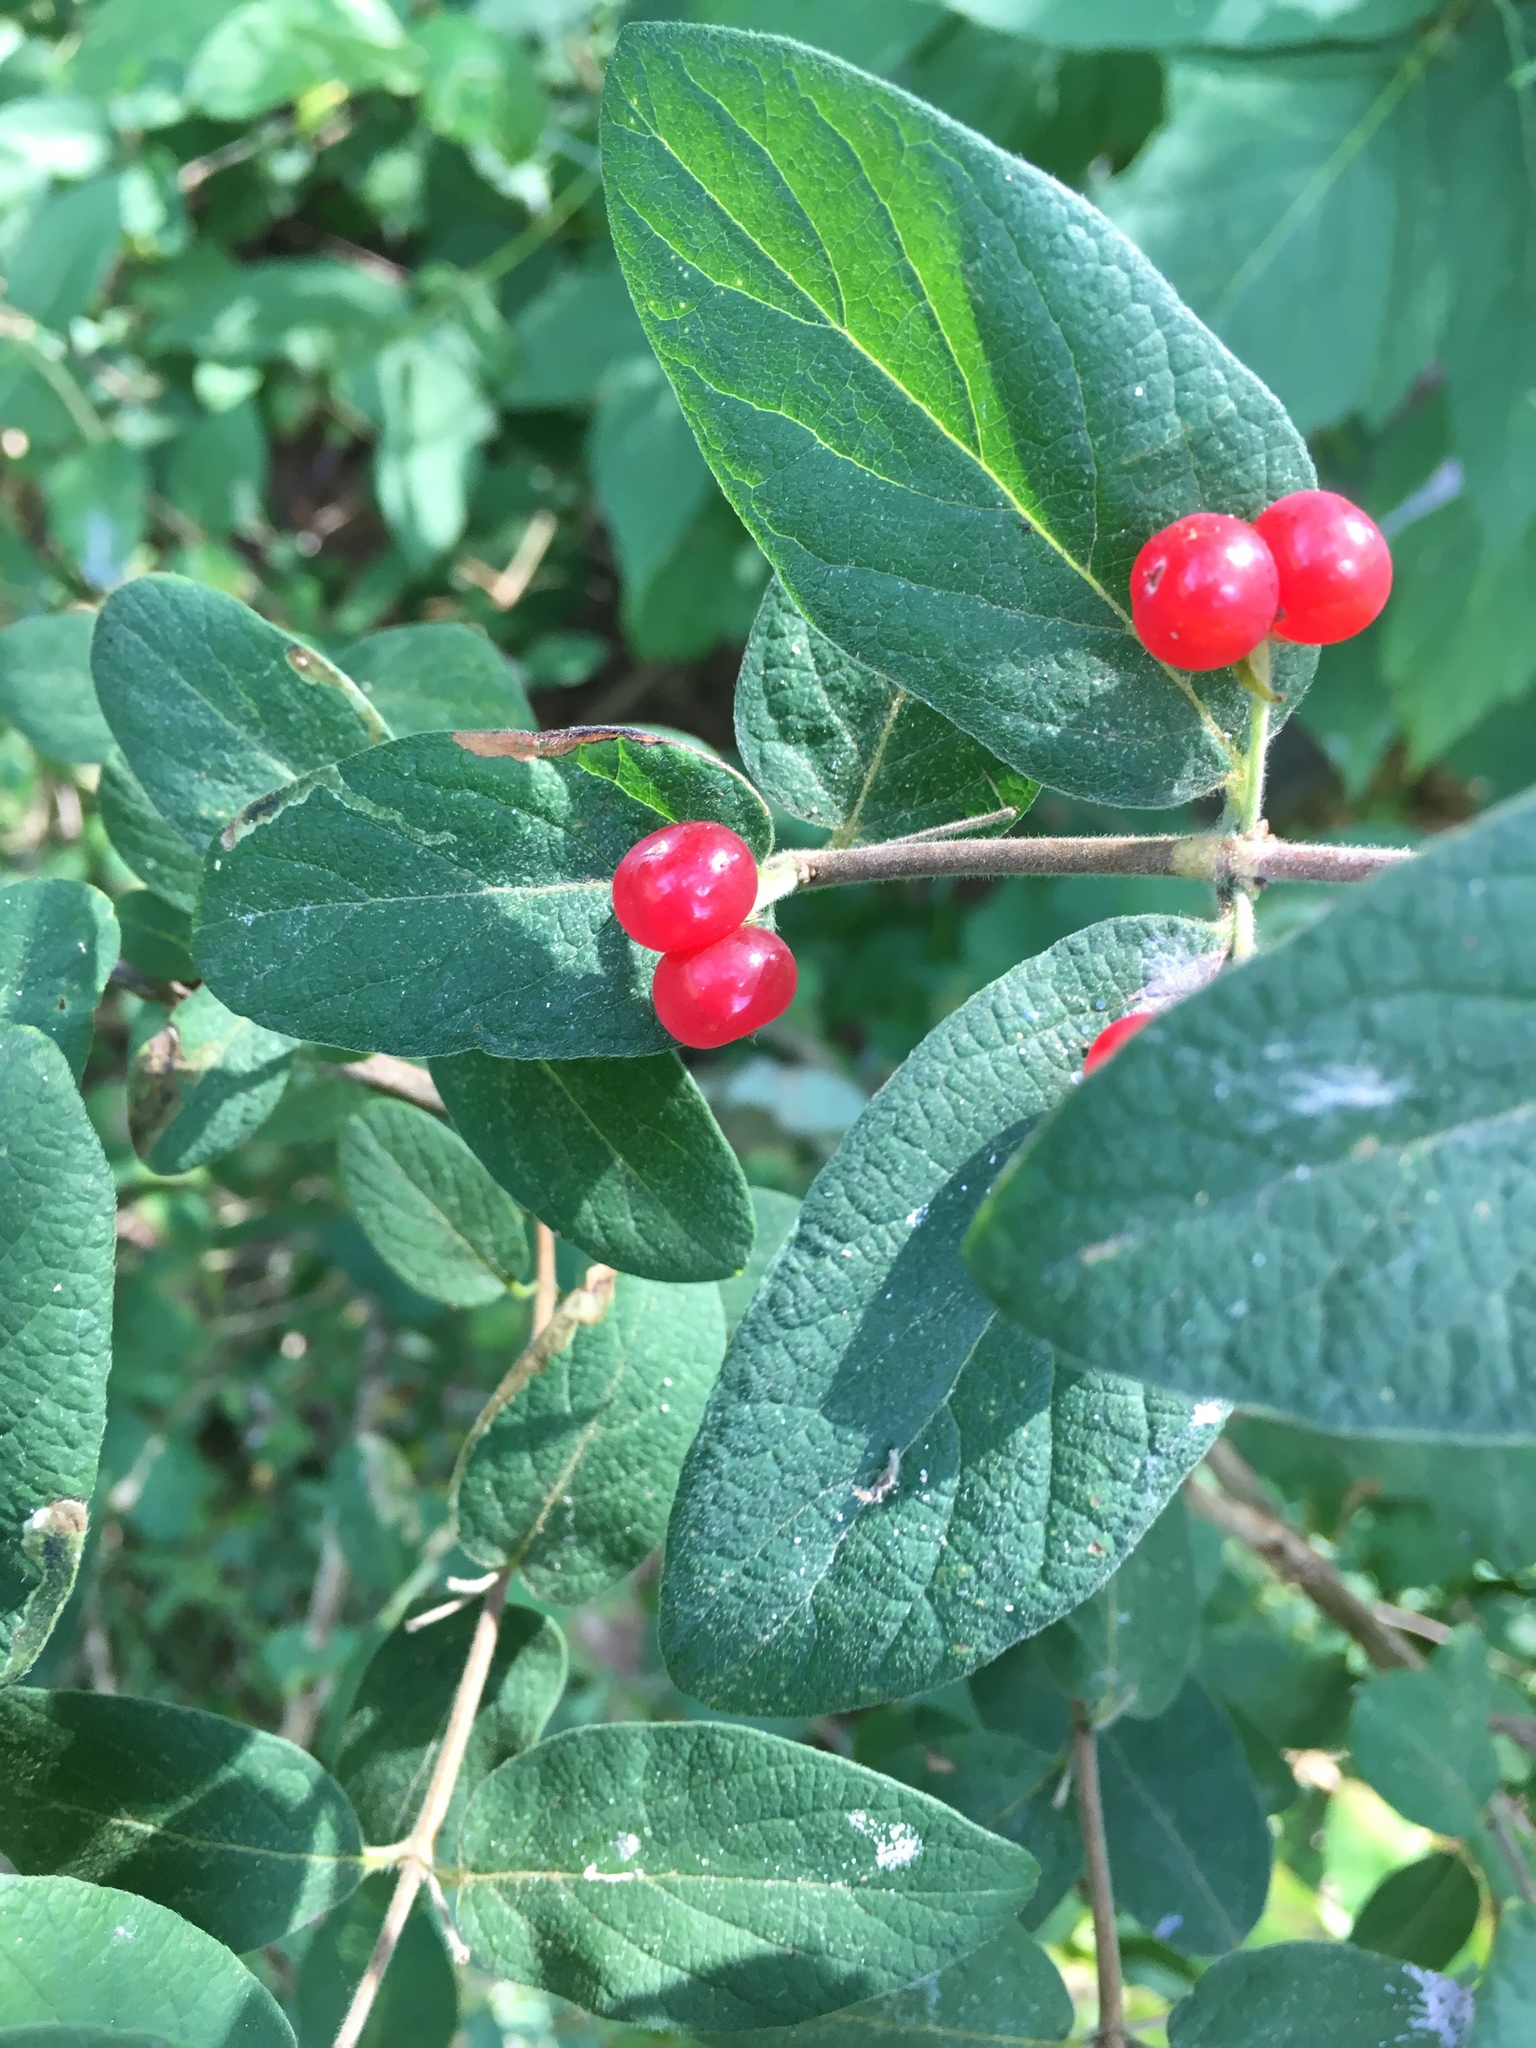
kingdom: Plantae
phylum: Tracheophyta
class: Magnoliopsida
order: Dipsacales
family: Caprifoliaceae
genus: Lonicera
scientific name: Lonicera morrowii
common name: Morrow's honeysuckle
